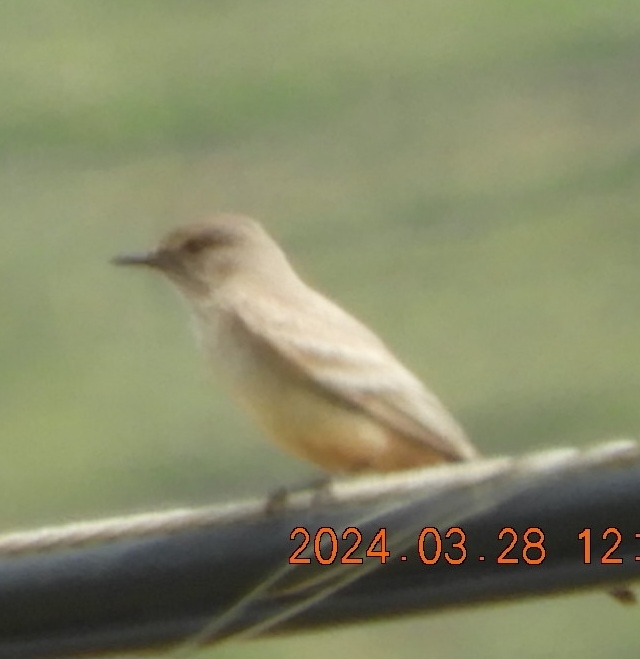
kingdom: Animalia
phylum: Chordata
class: Aves
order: Passeriformes
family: Tyrannidae
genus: Sayornis
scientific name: Sayornis saya
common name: Say's phoebe
